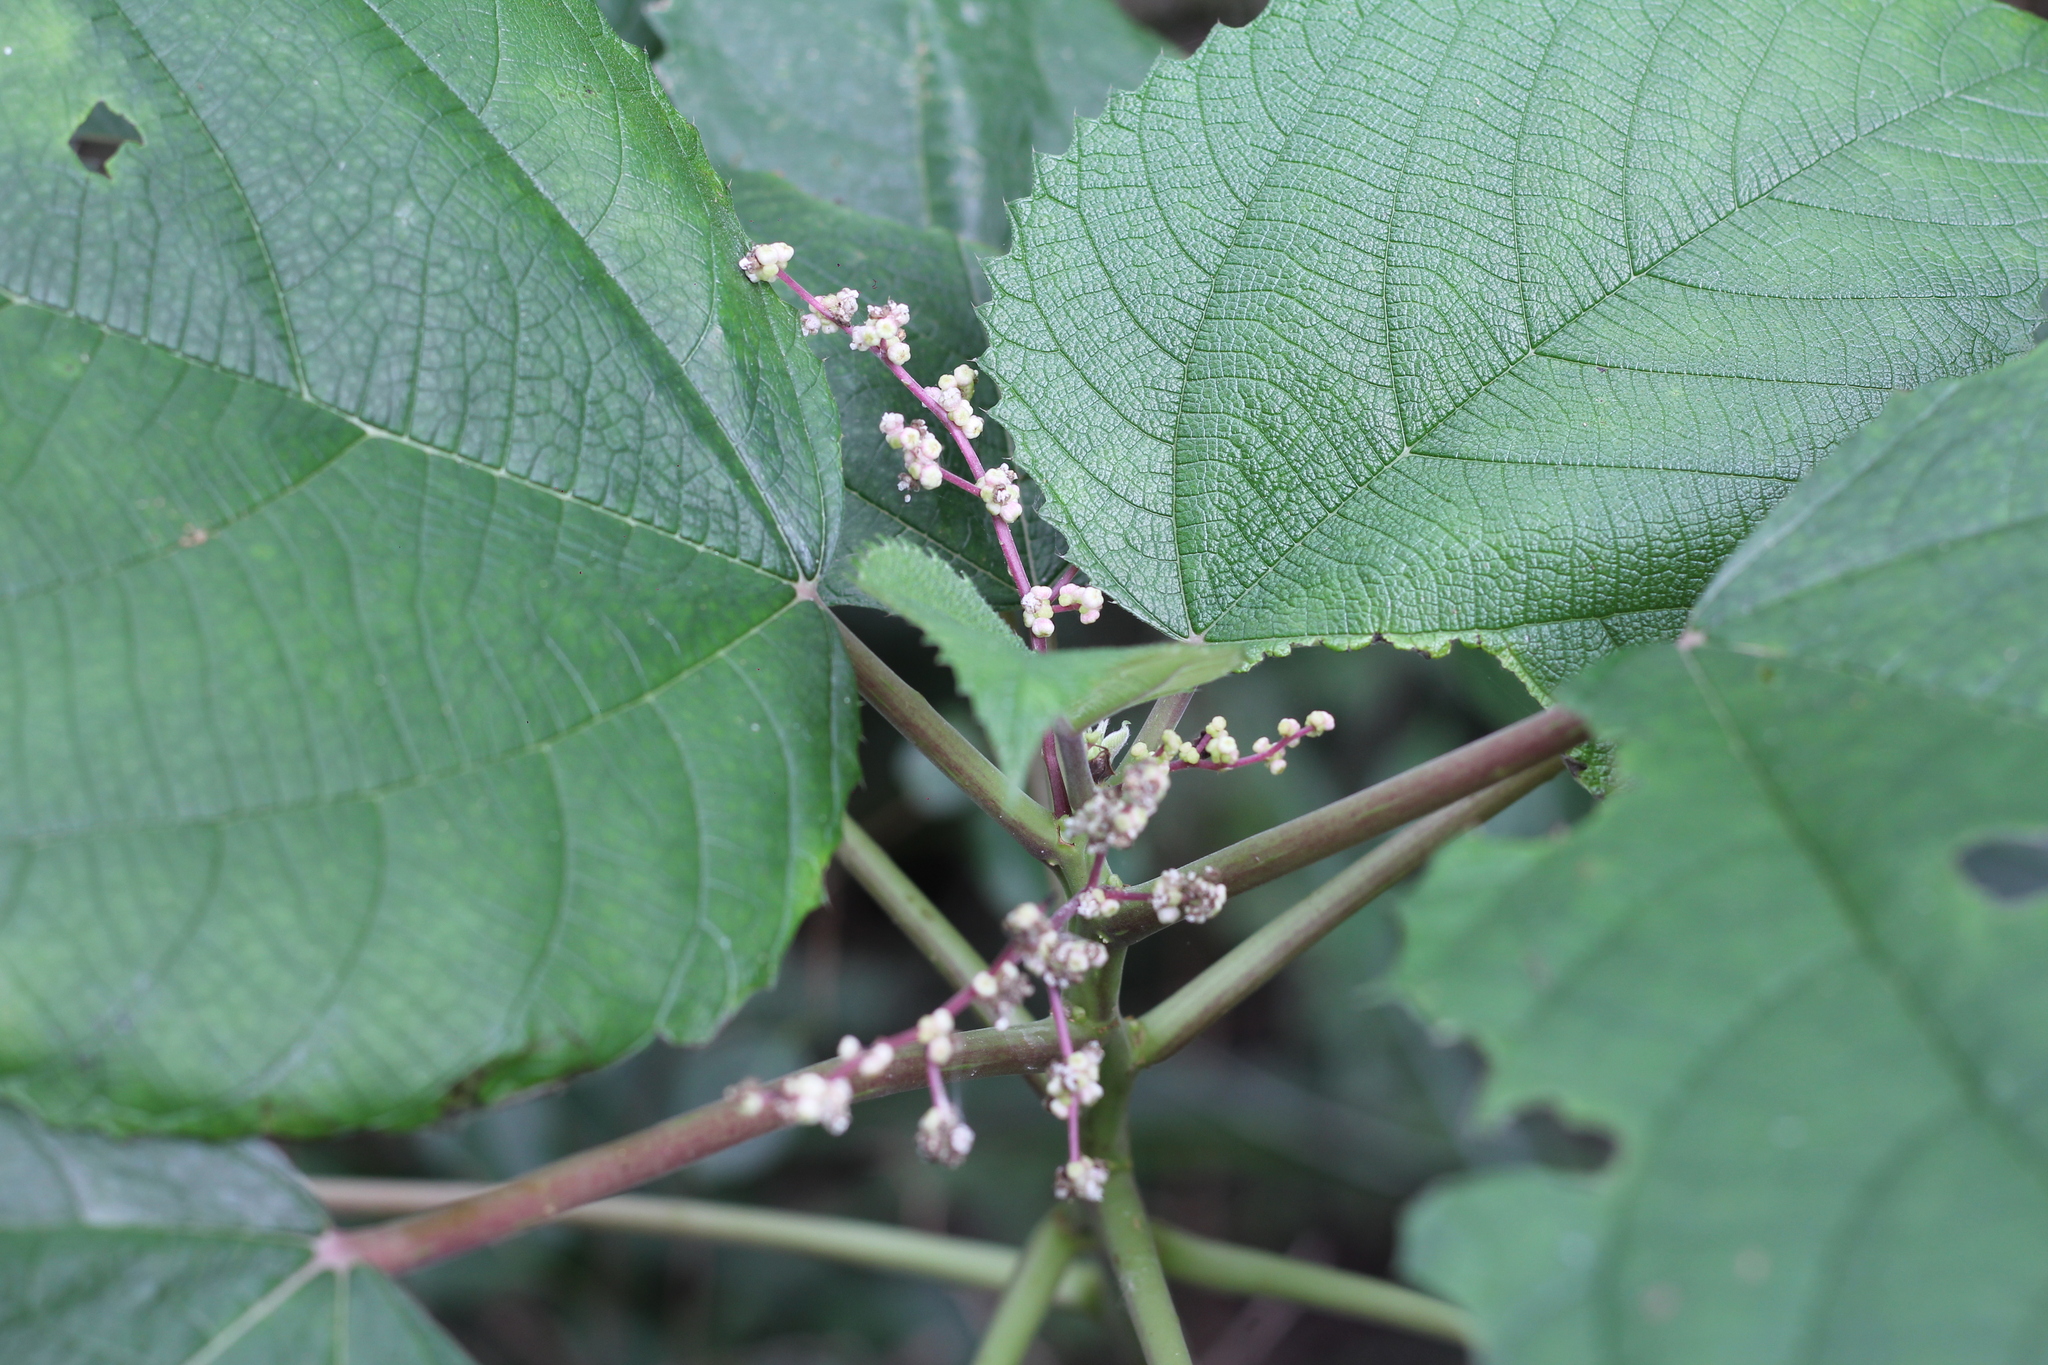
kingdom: Plantae
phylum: Tracheophyta
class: Magnoliopsida
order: Rosales
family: Urticaceae
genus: Urera
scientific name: Urera aurantiaca
